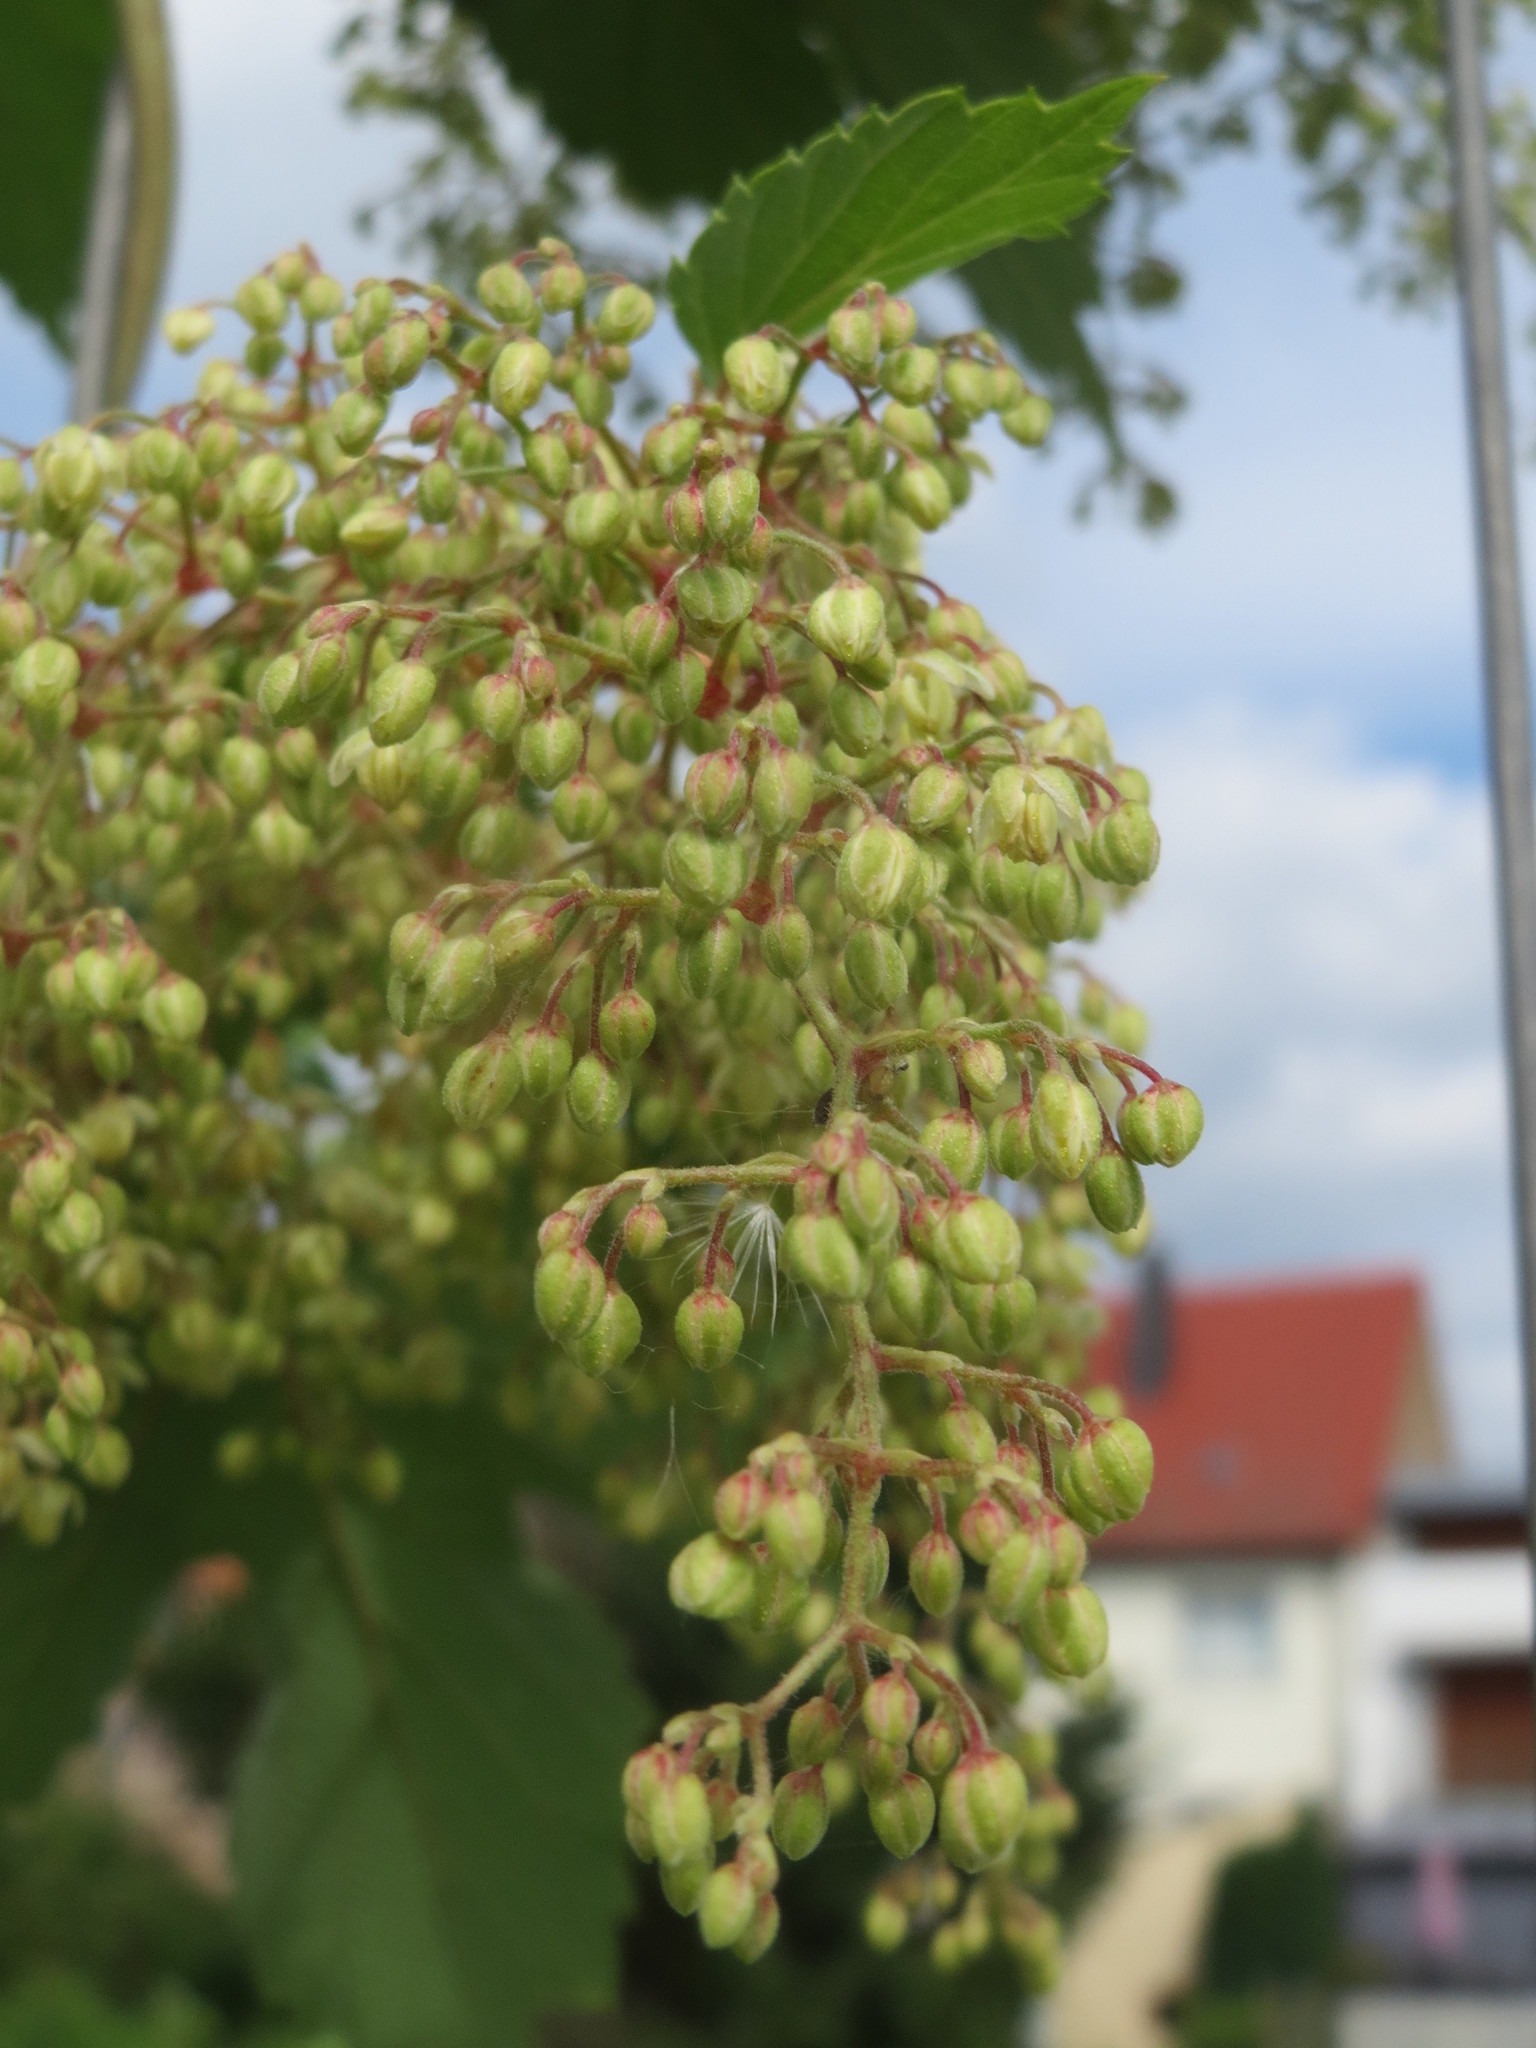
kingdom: Plantae
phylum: Tracheophyta
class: Magnoliopsida
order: Rosales
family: Cannabaceae
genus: Humulus
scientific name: Humulus lupulus
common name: Hop
